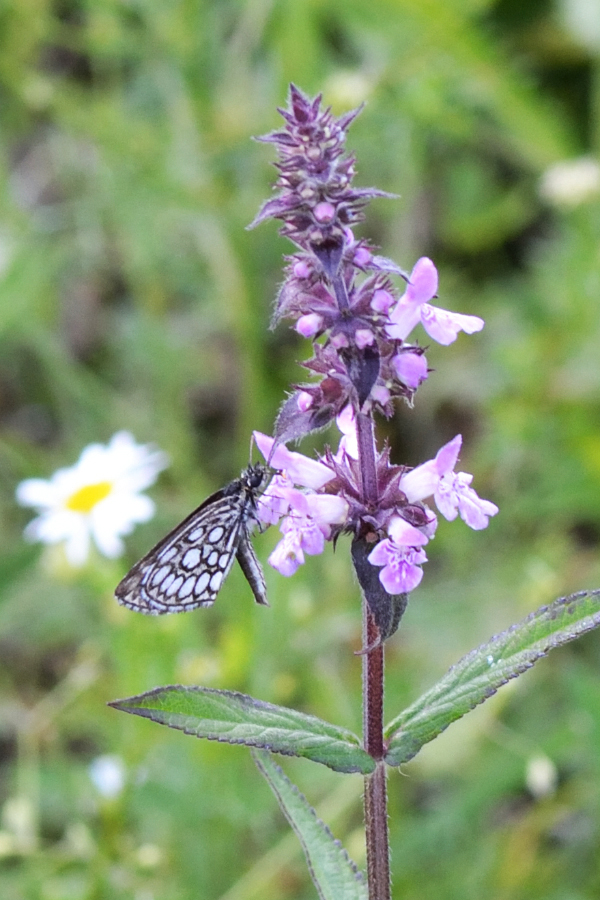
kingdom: Animalia
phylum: Arthropoda
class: Insecta
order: Lepidoptera
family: Hesperiidae
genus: Heteropterus
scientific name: Heteropterus morpheus
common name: Large chequered skipper
